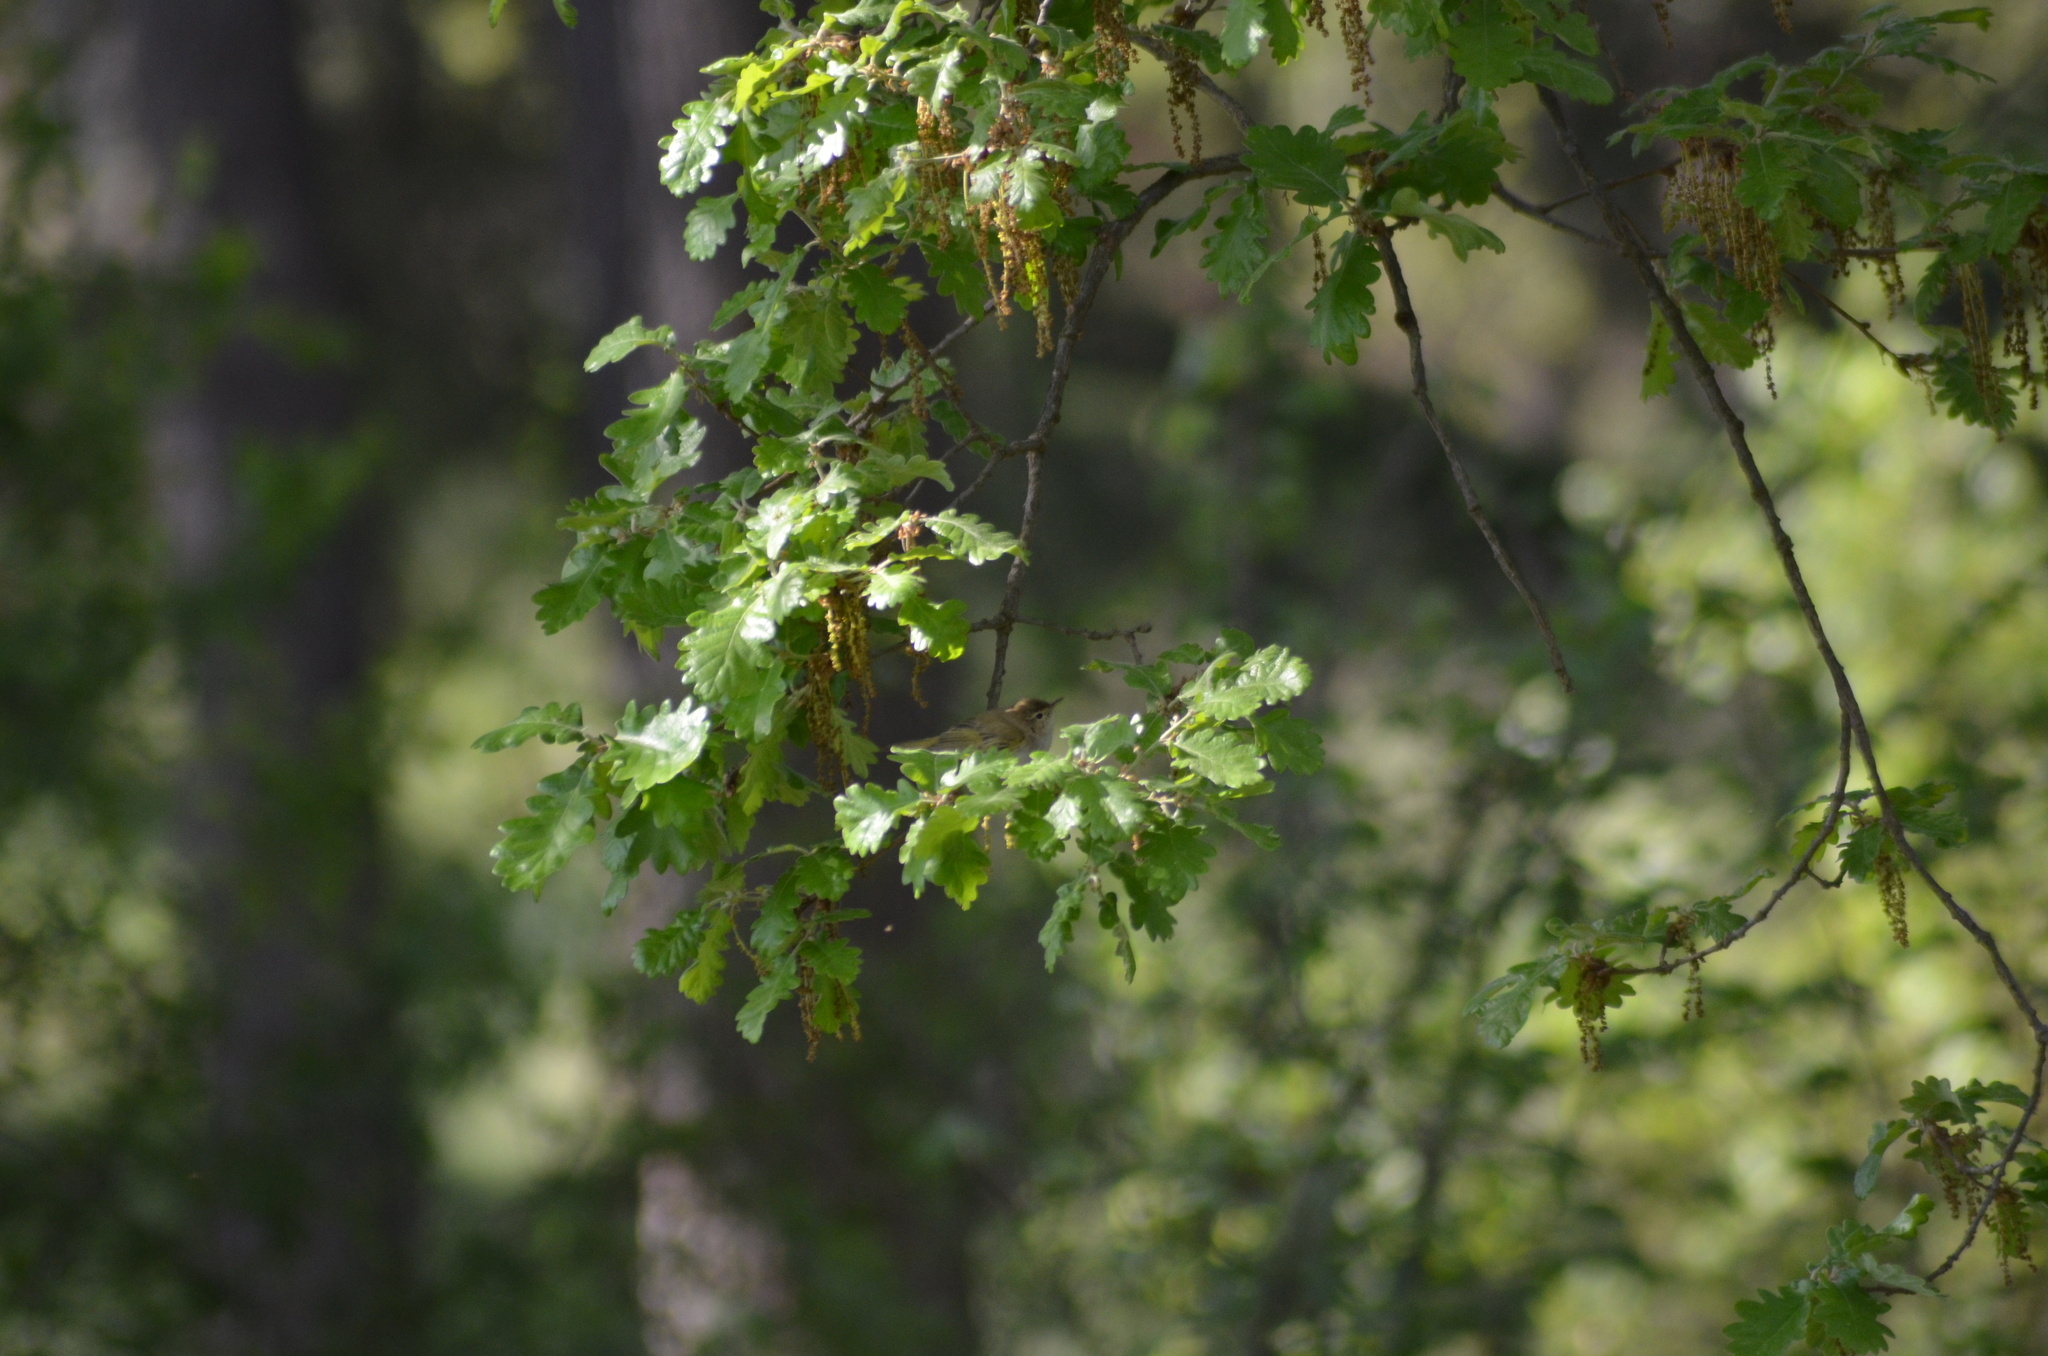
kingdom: Animalia
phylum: Chordata
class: Aves
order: Passeriformes
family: Phylloscopidae
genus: Phylloscopus
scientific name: Phylloscopus bonelli
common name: Western bonelli's warbler
